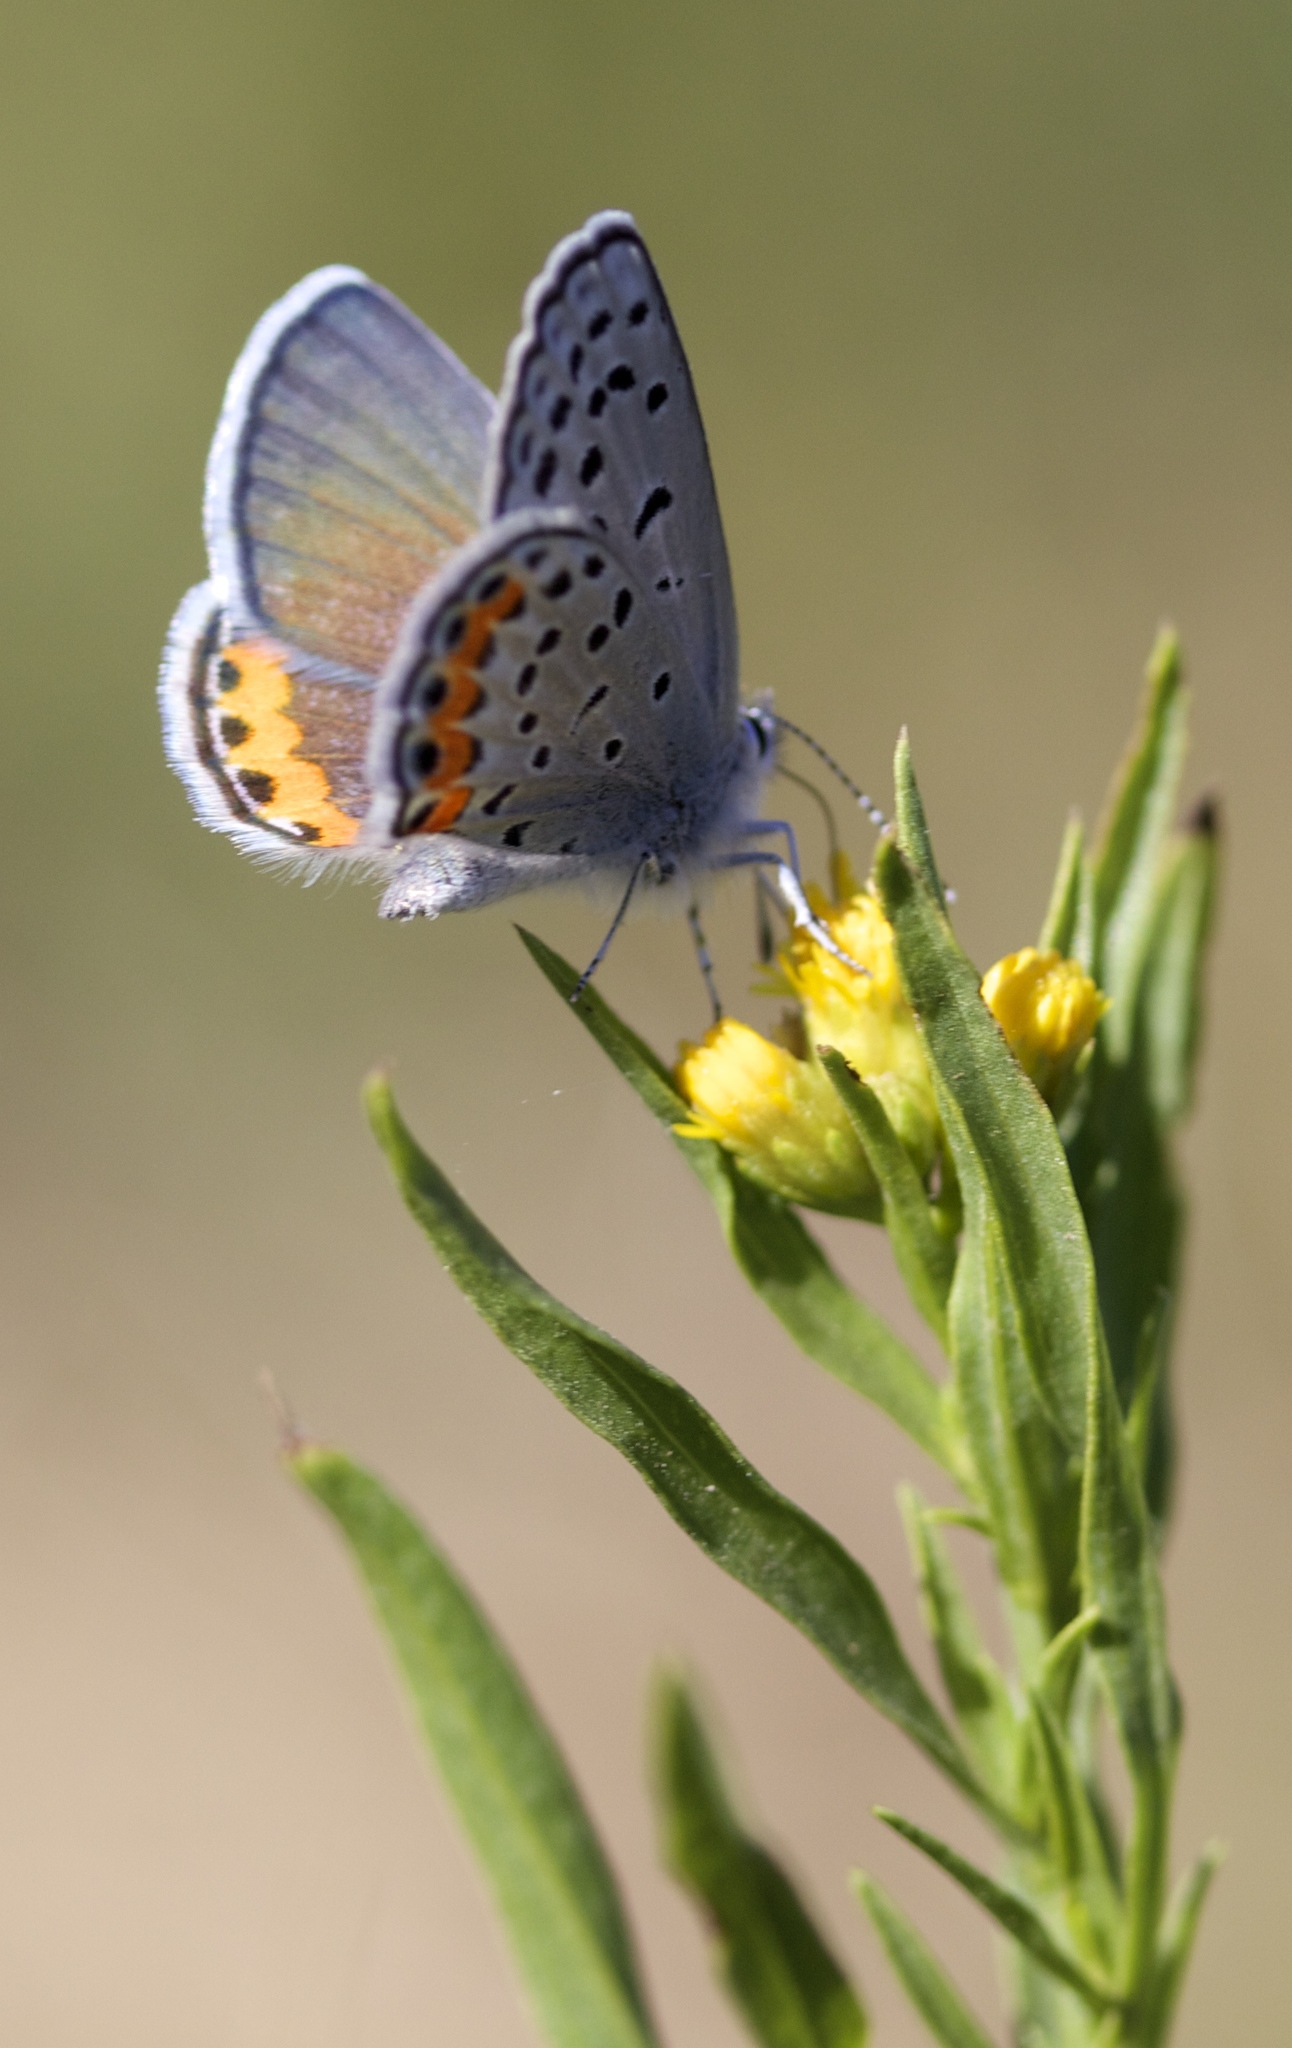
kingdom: Animalia
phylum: Arthropoda
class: Insecta
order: Lepidoptera
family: Lycaenidae
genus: Icaricia
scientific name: Icaricia acmon
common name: Acmon blue
